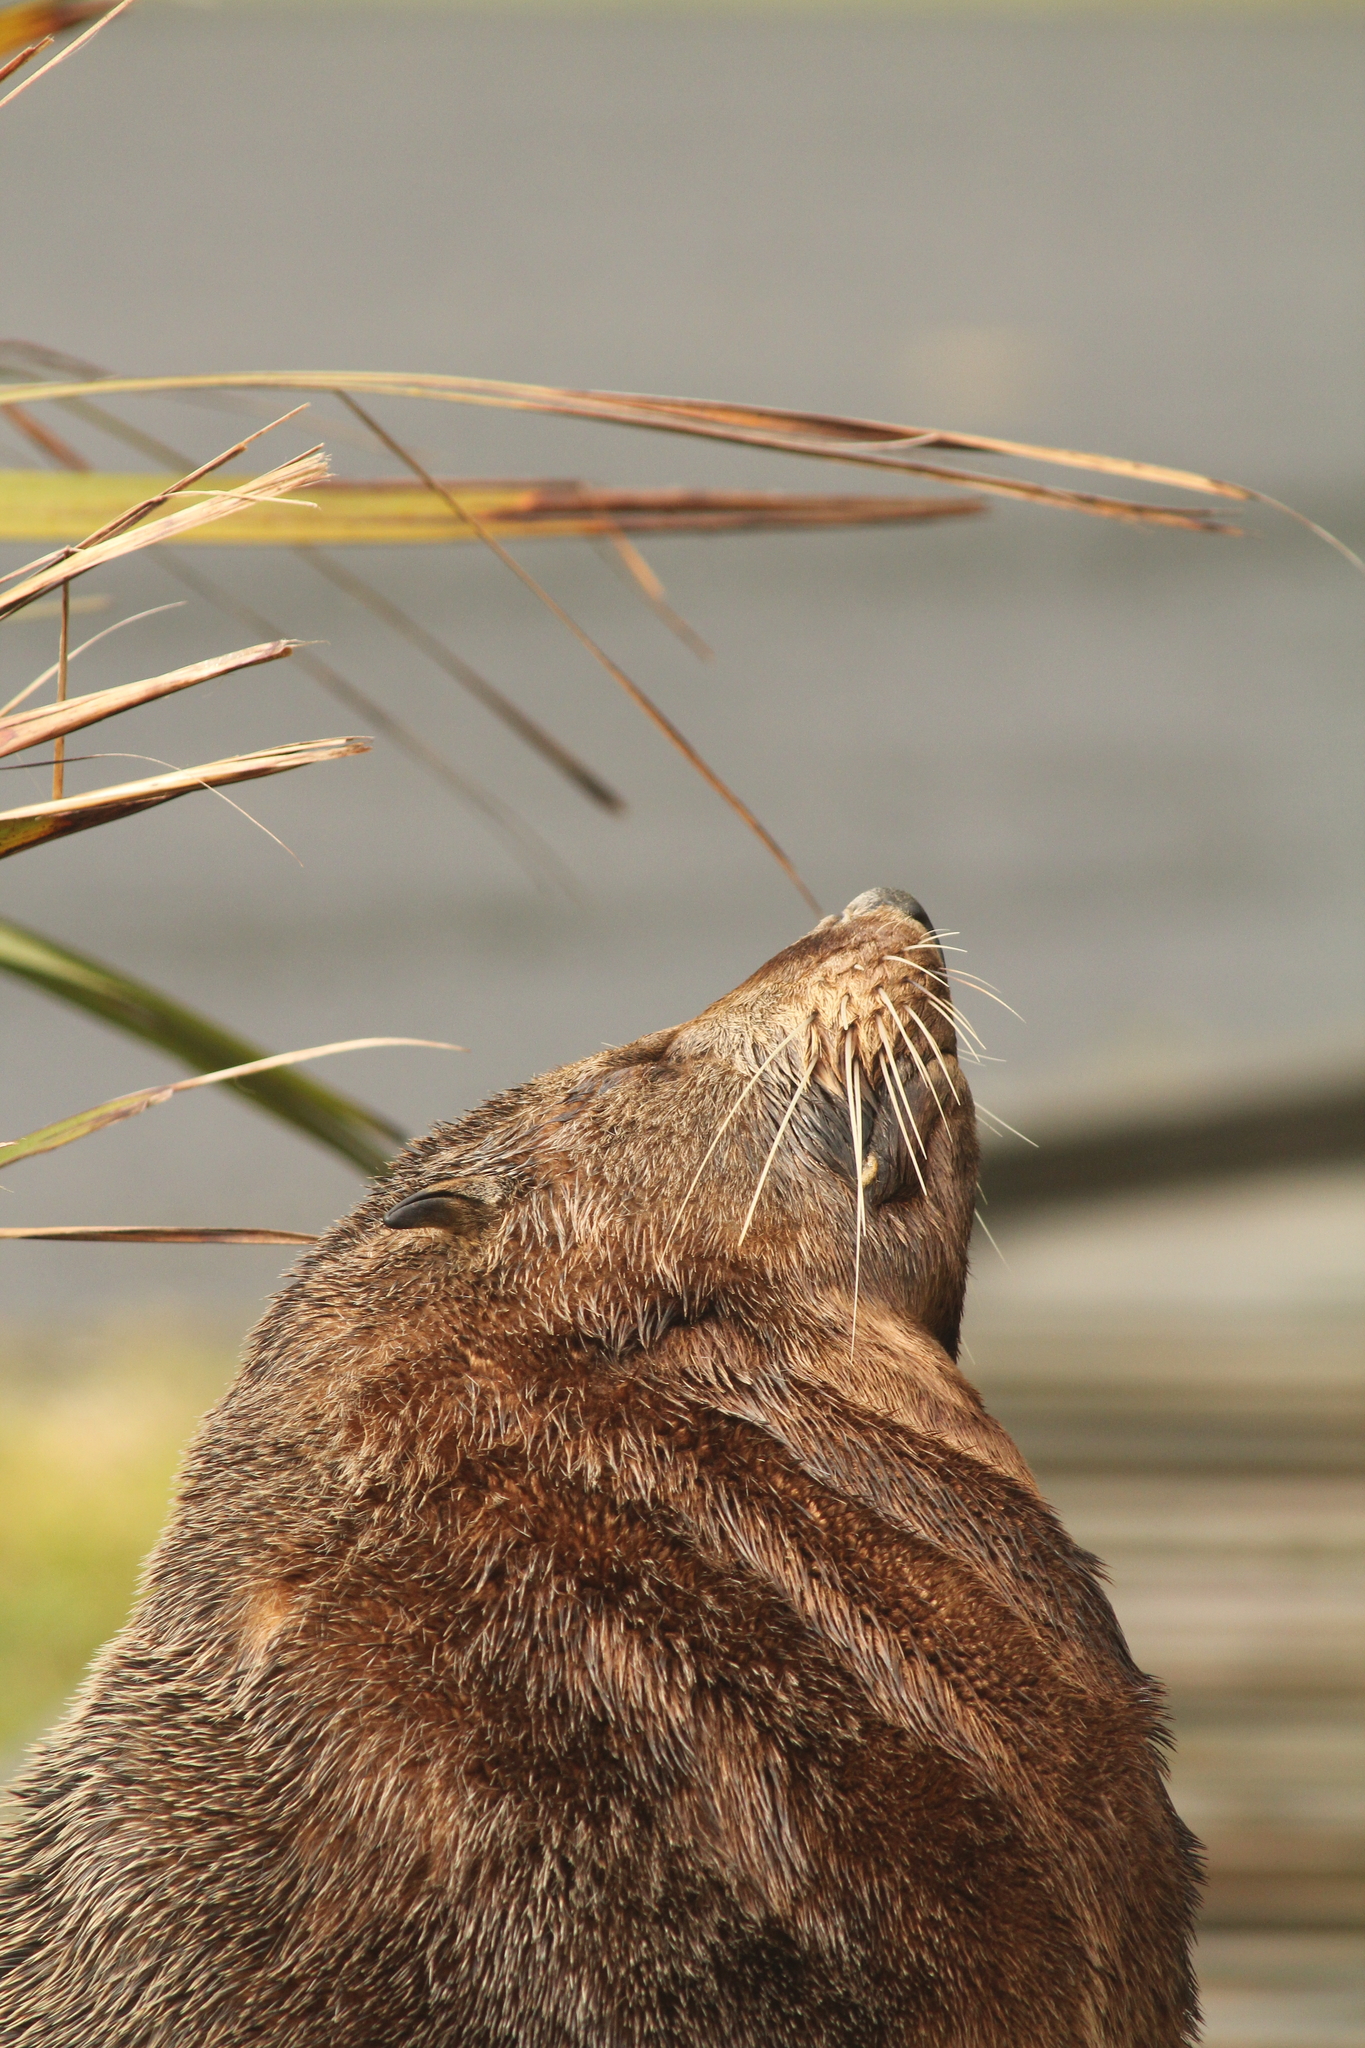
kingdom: Animalia
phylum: Chordata
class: Mammalia
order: Carnivora
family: Otariidae
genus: Arctocephalus
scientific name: Arctocephalus forsteri
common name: New zealand fur seal
